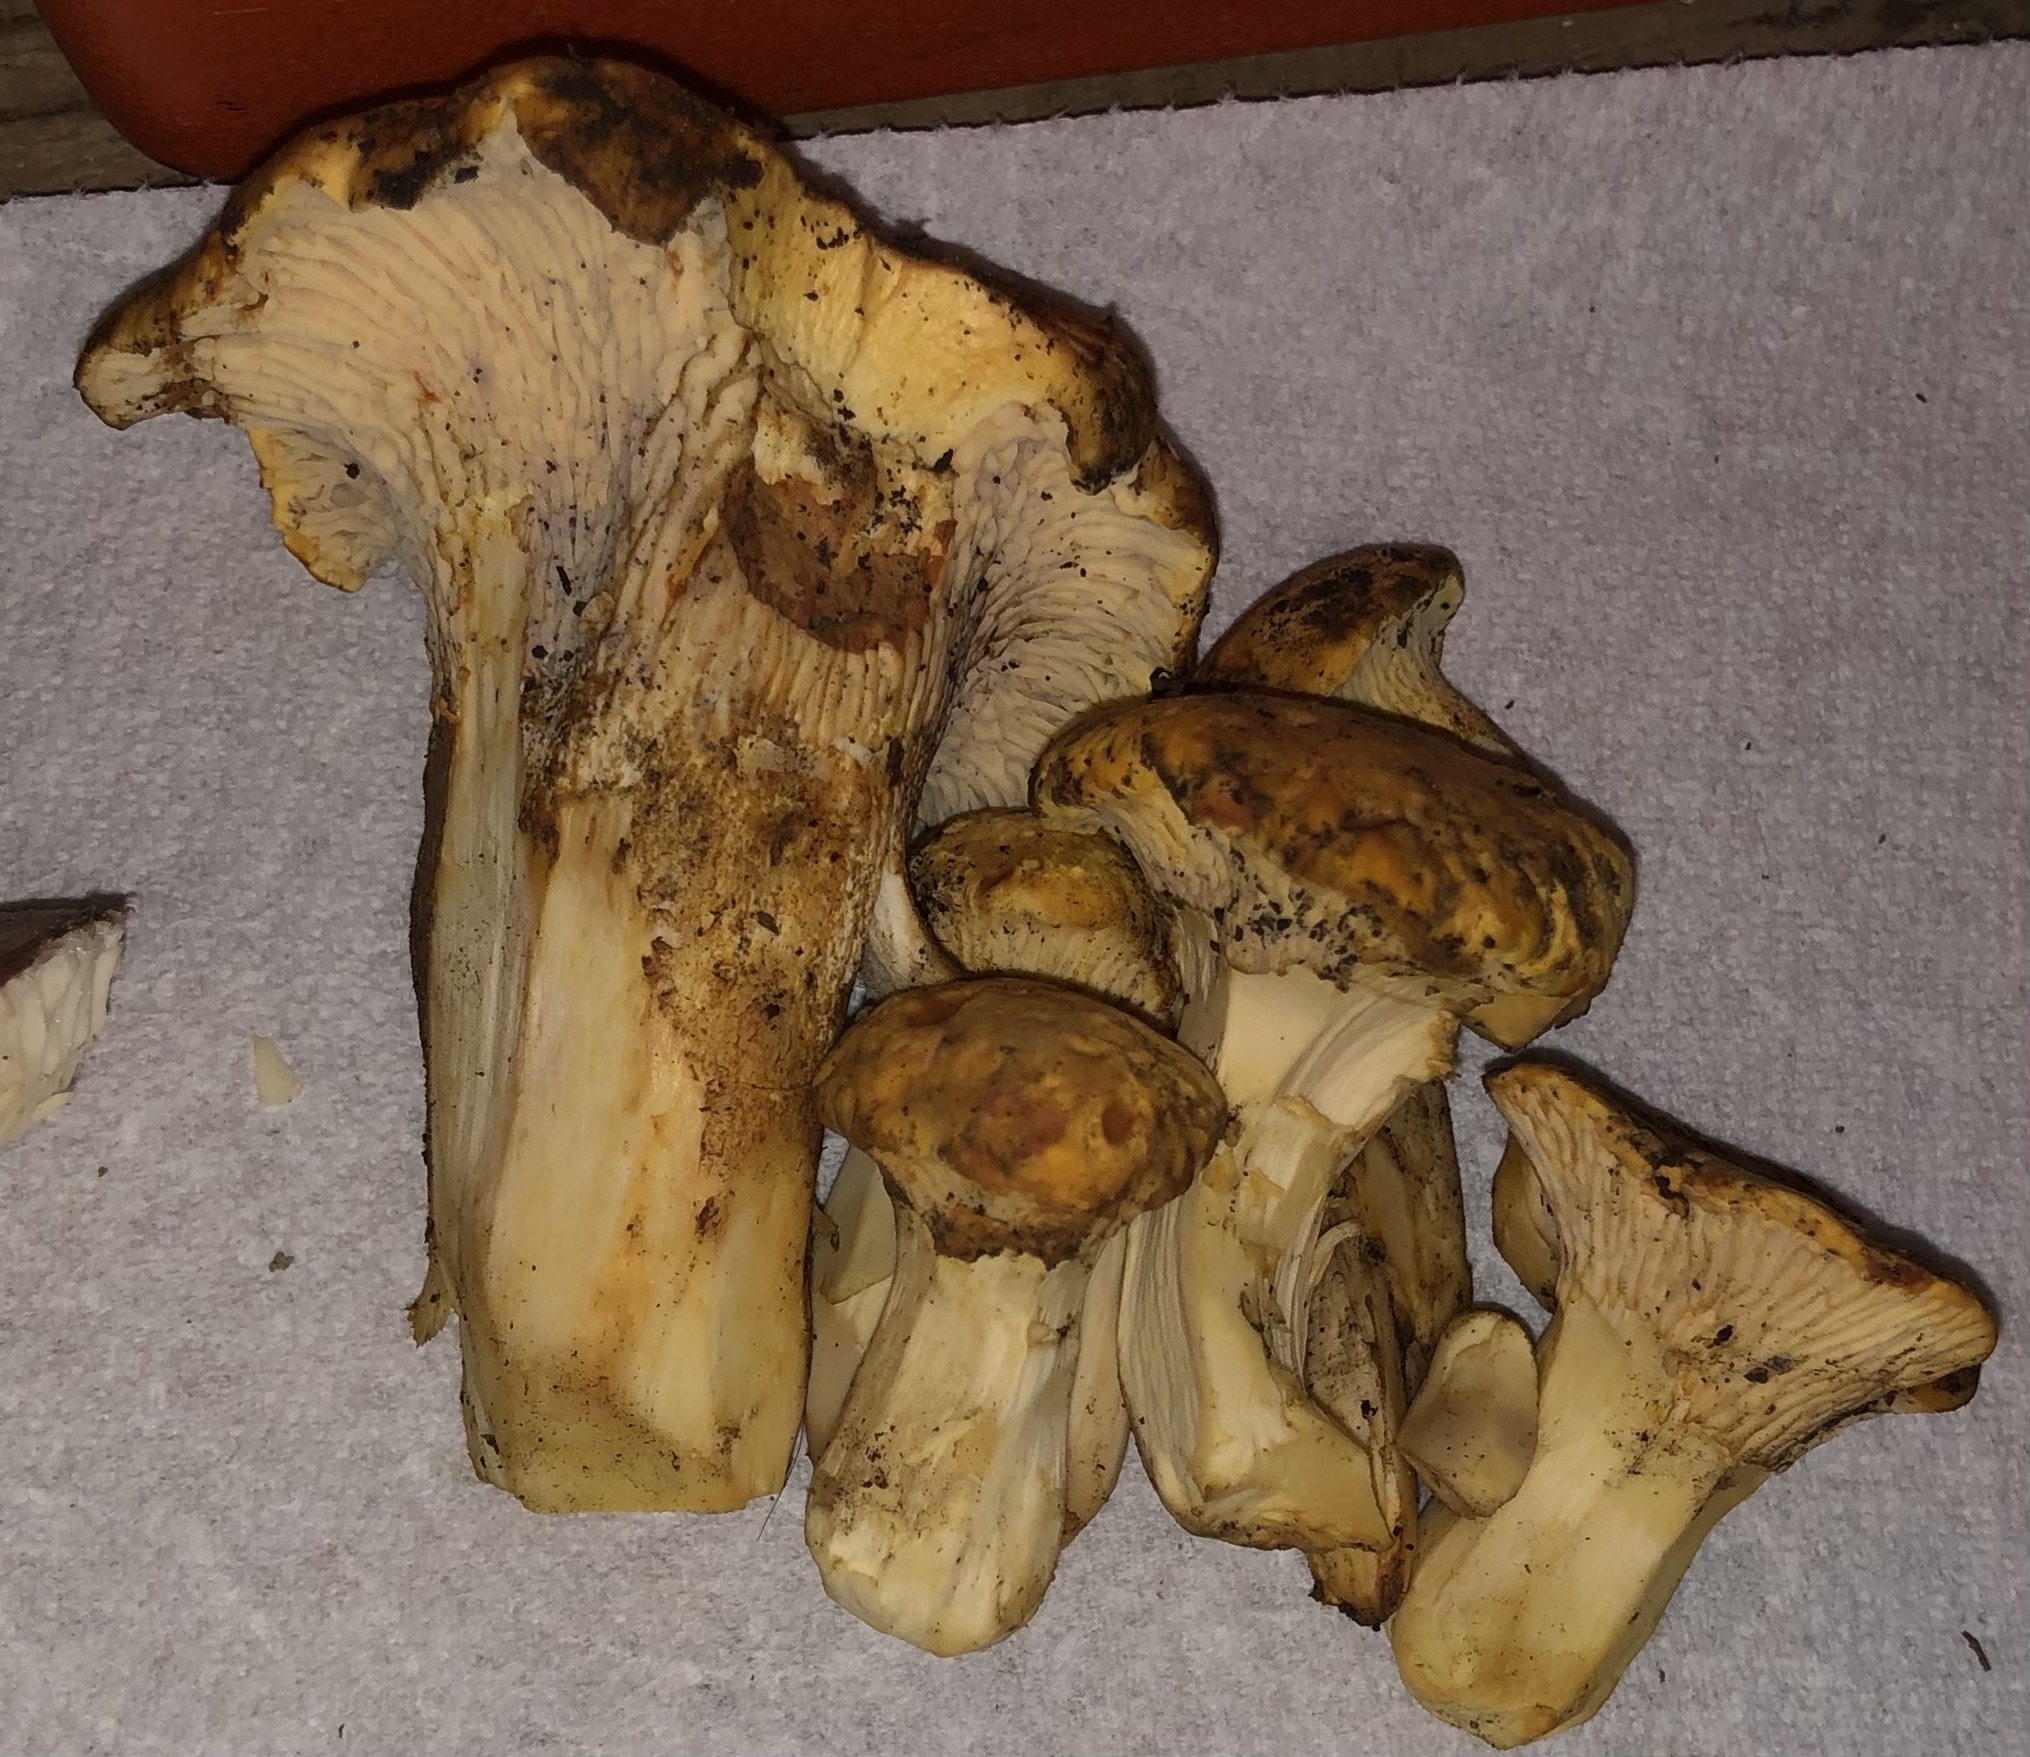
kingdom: Fungi
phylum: Basidiomycota
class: Agaricomycetes
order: Cantharellales
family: Hydnaceae
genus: Cantharellus
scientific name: Cantharellus californicus
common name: California golden chanterelle
